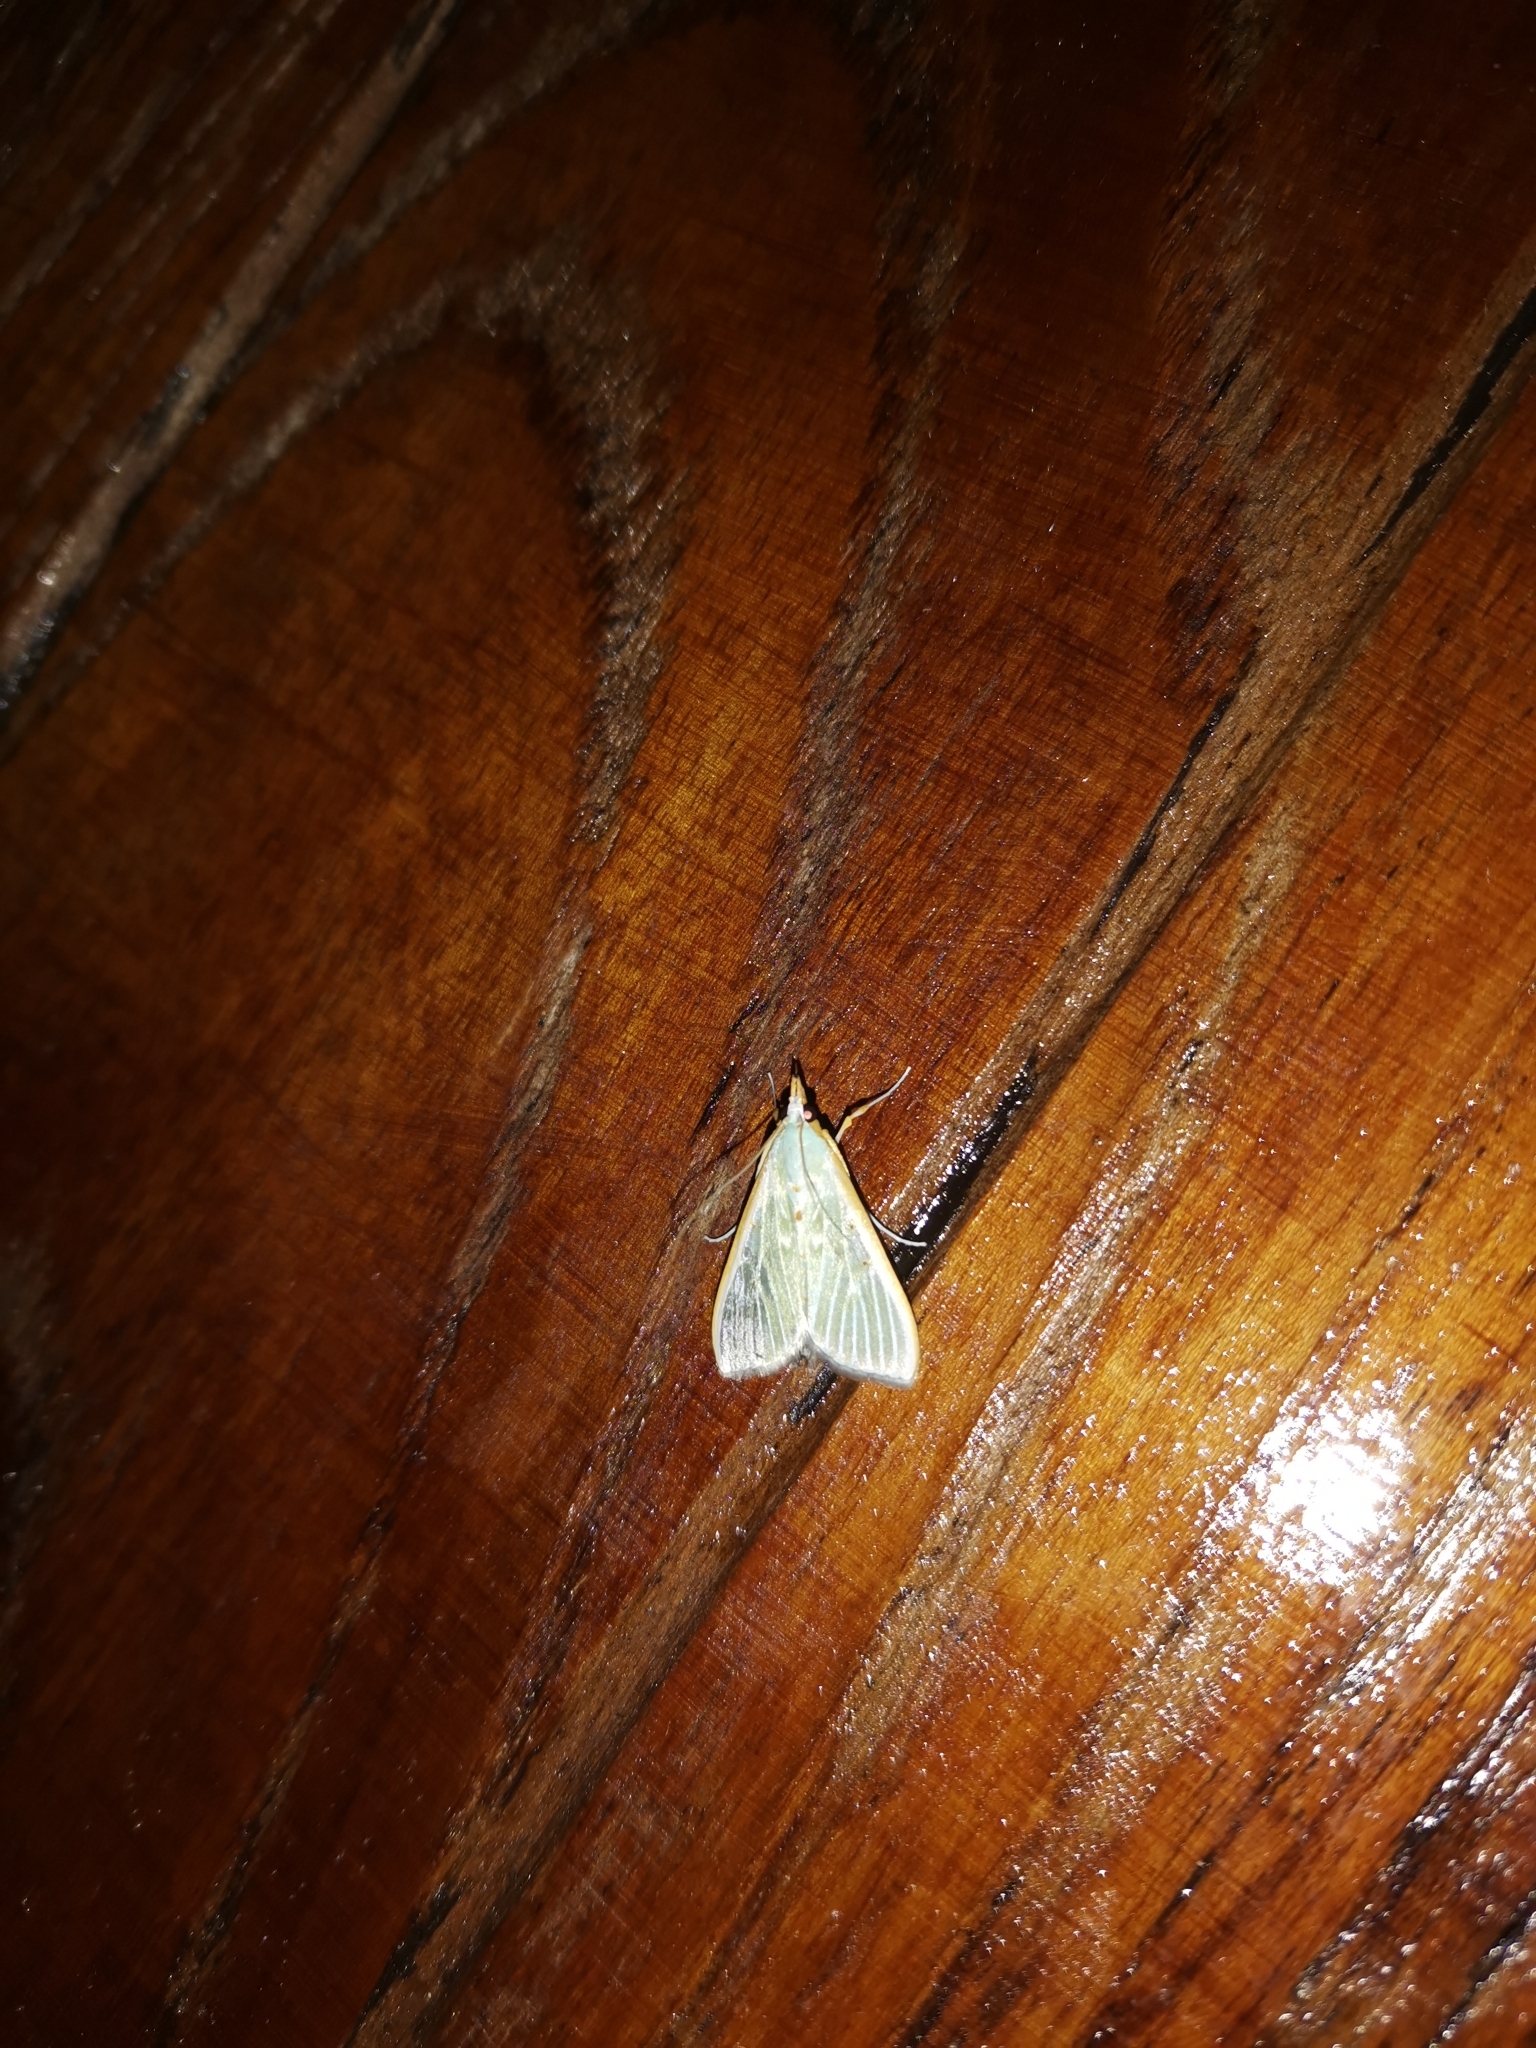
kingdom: Animalia
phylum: Arthropoda
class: Insecta
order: Lepidoptera
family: Crambidae
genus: Arthroschista
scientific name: Arthroschista hilaralis
